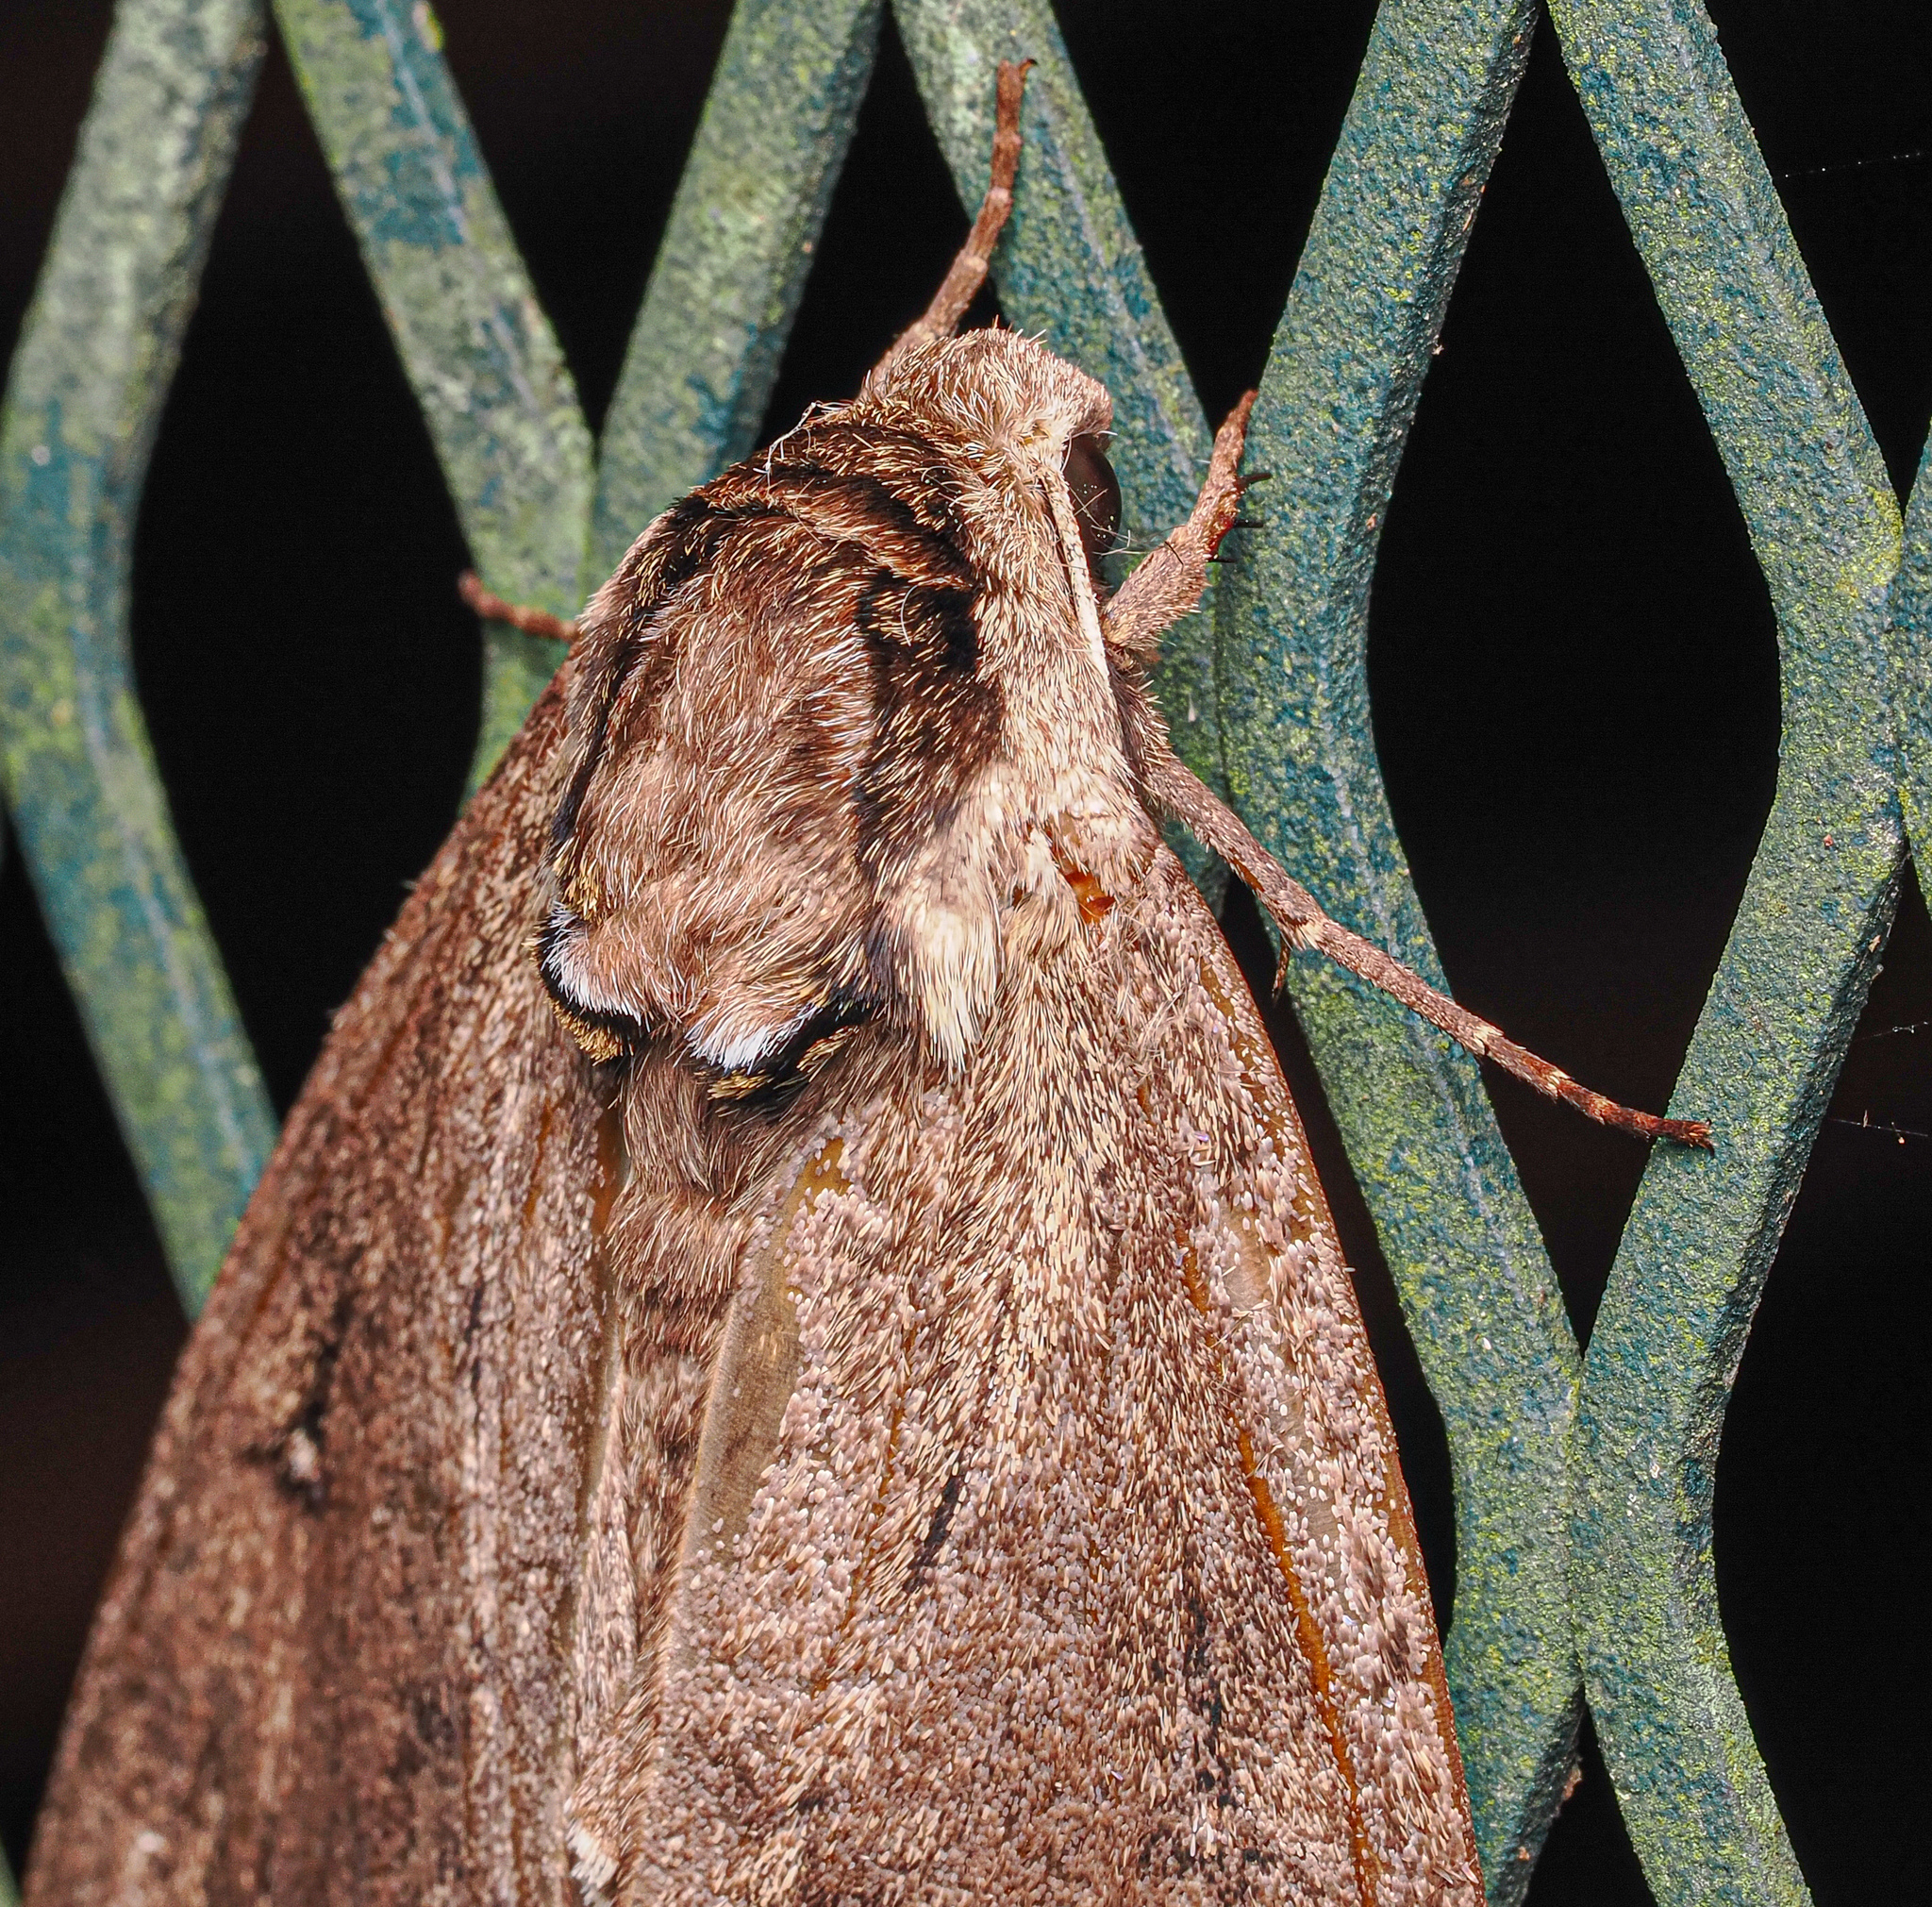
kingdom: Animalia
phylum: Arthropoda
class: Insecta
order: Lepidoptera
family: Sphingidae
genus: Ceratomia
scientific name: Ceratomia catalpae
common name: Catalpa hornworm
